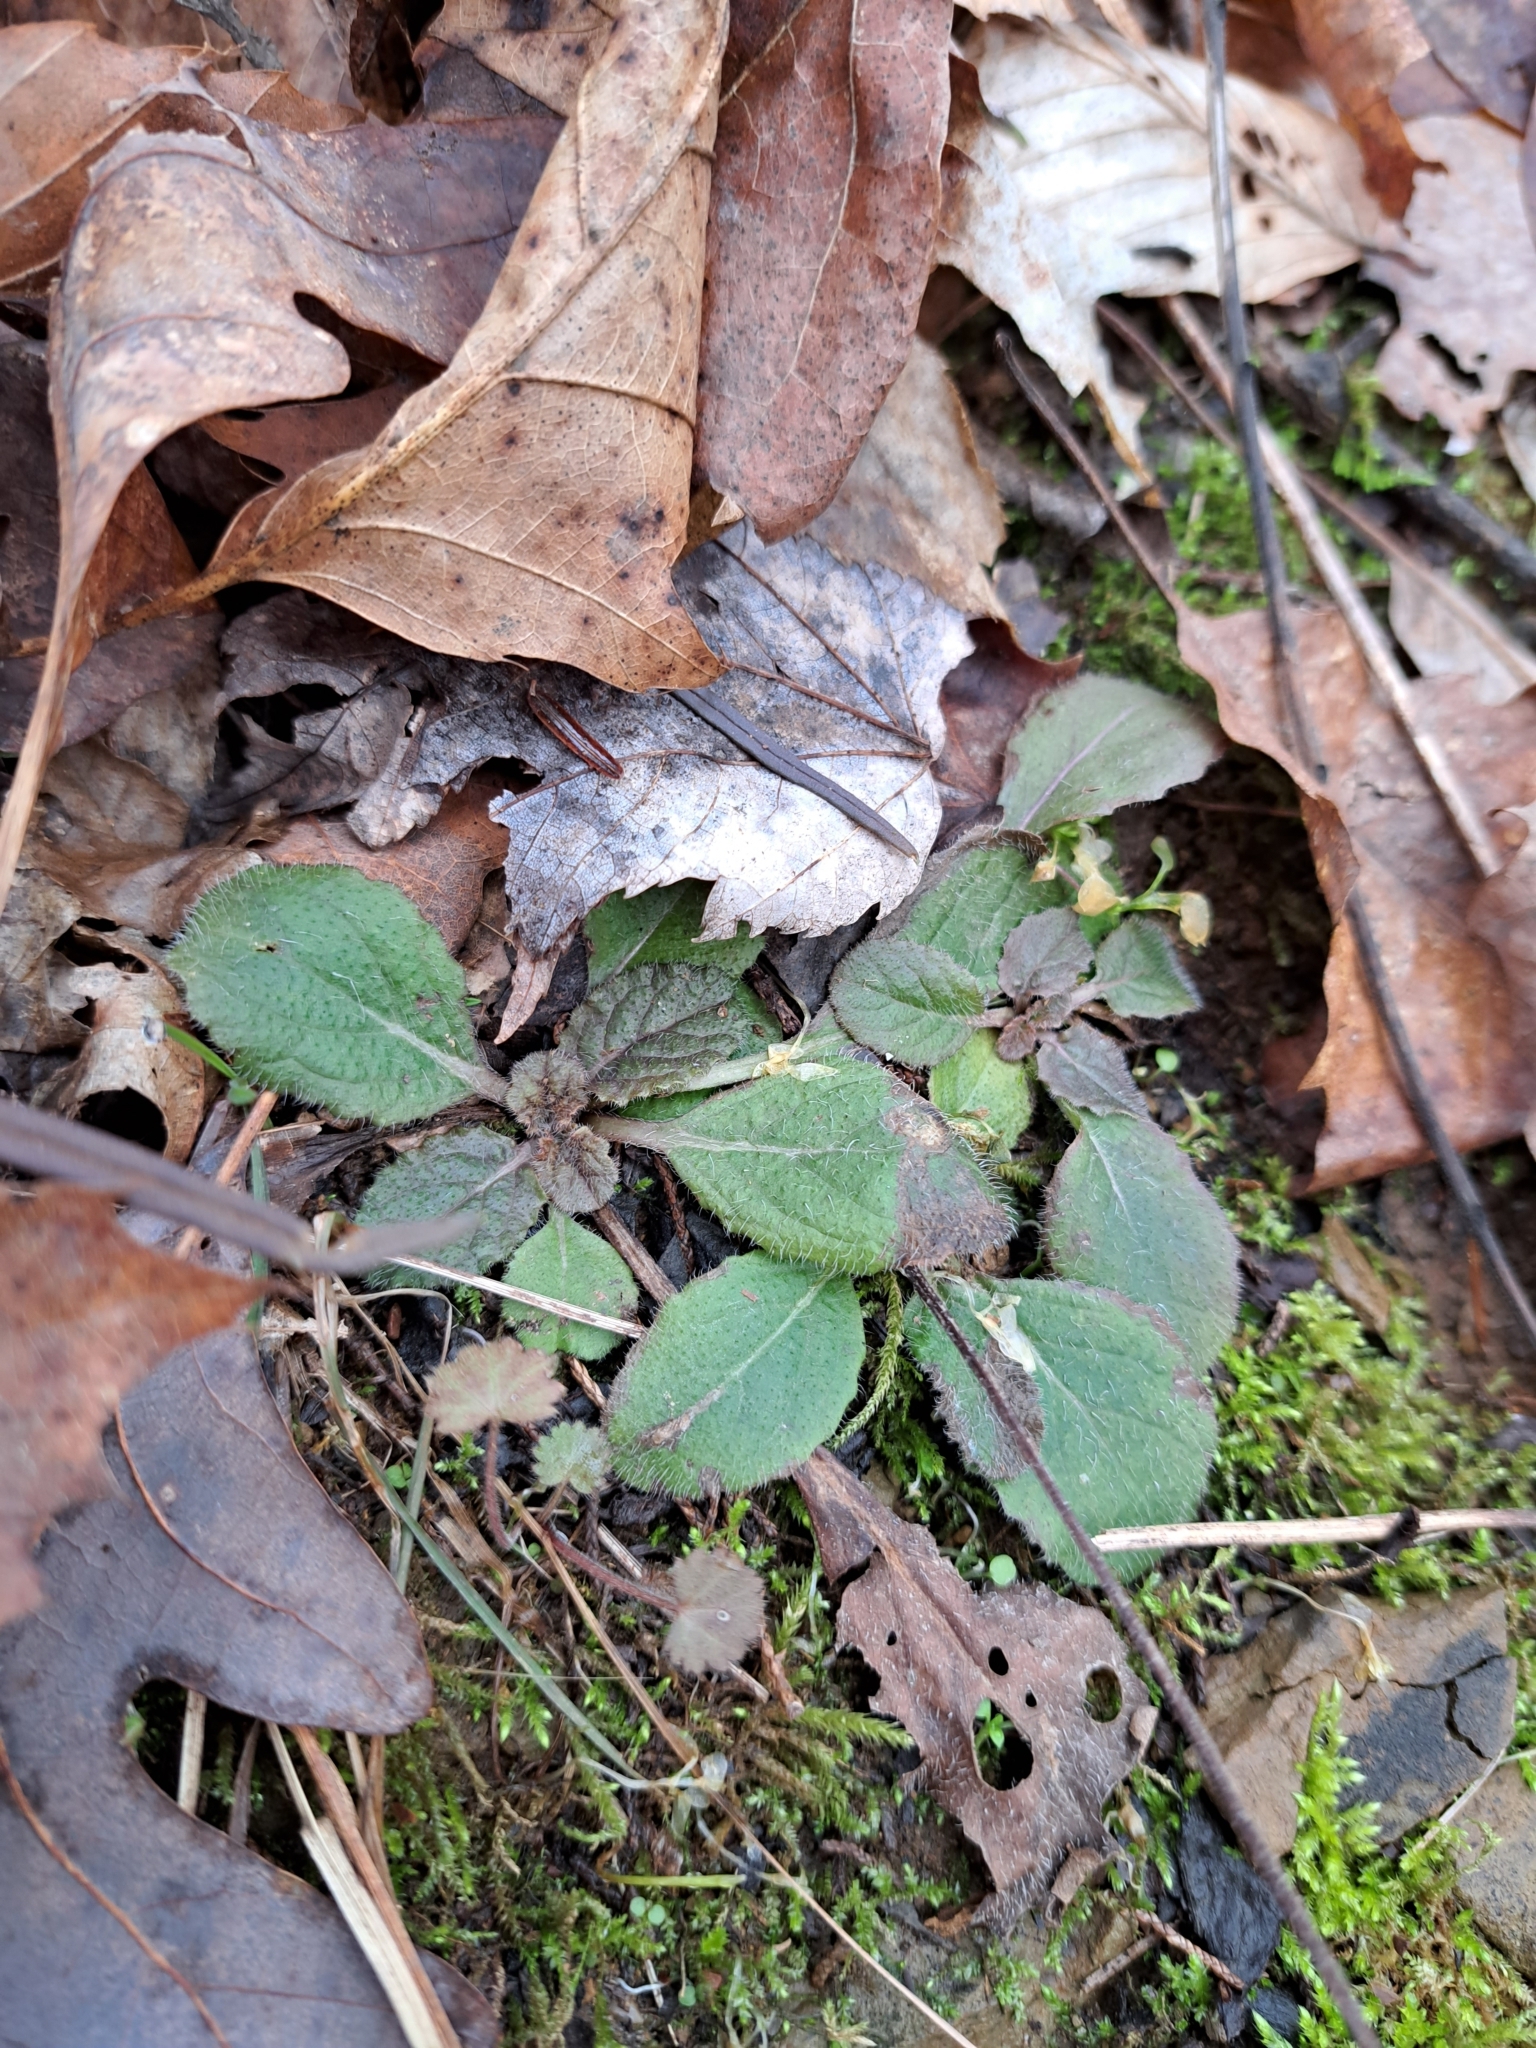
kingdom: Plantae
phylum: Tracheophyta
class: Magnoliopsida
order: Lamiales
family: Lamiaceae
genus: Salvia
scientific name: Salvia lyrata
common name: Cancerweed
